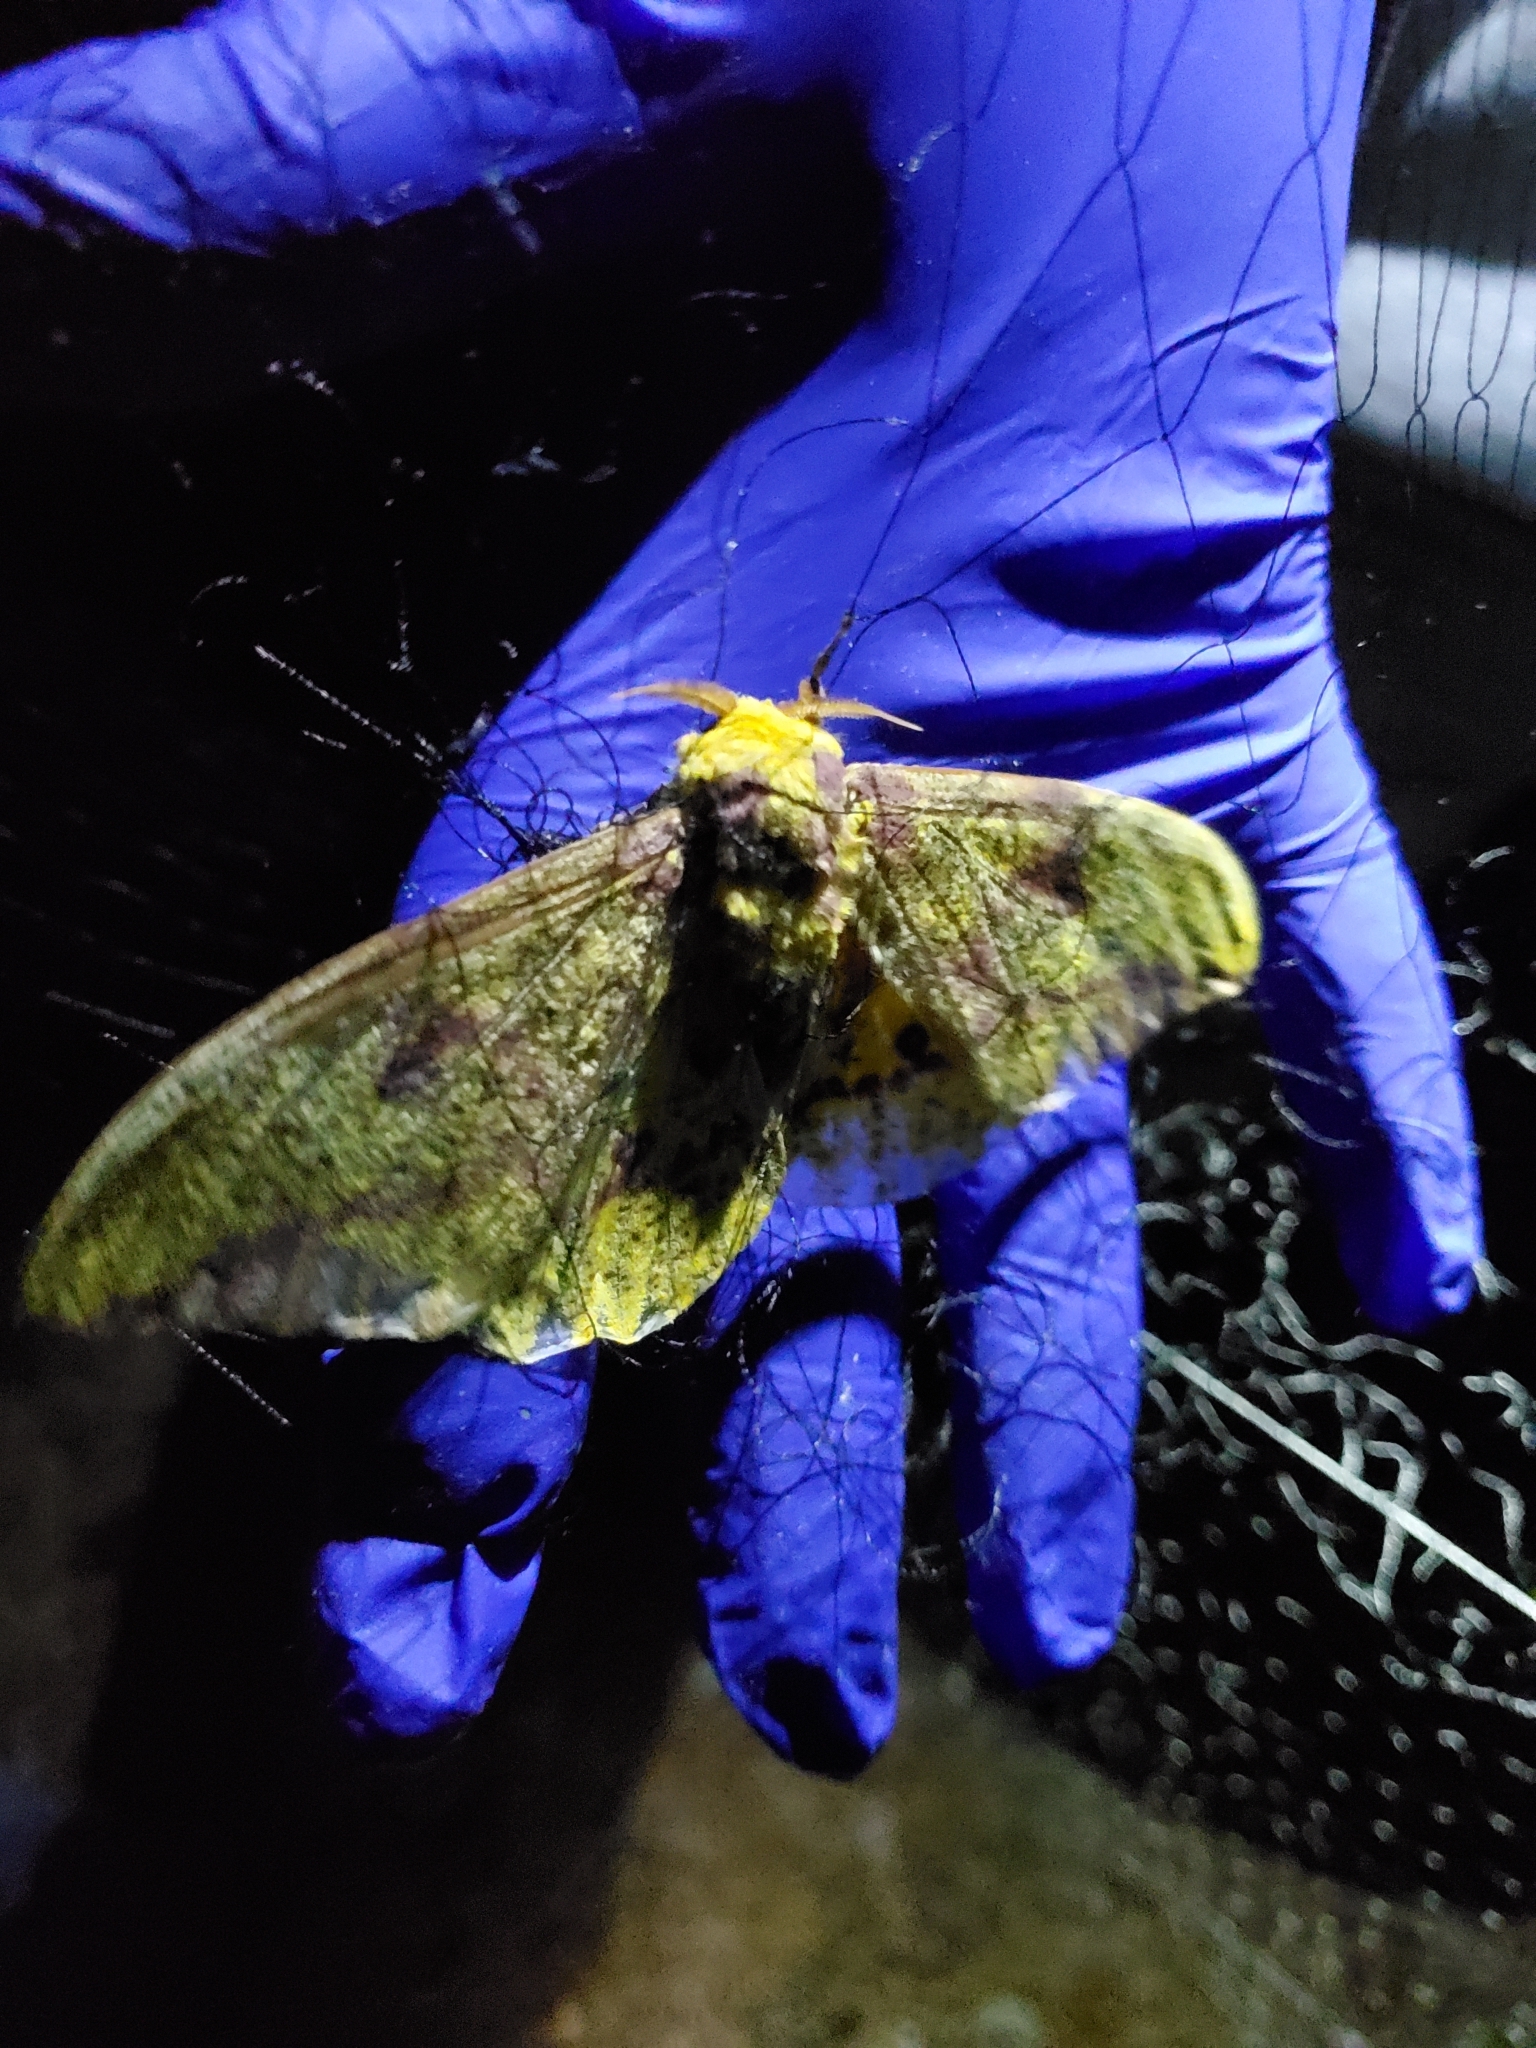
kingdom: Animalia
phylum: Arthropoda
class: Insecta
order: Lepidoptera
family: Saturniidae
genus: Eacles
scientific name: Eacles imperialis
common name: Imperial moth
